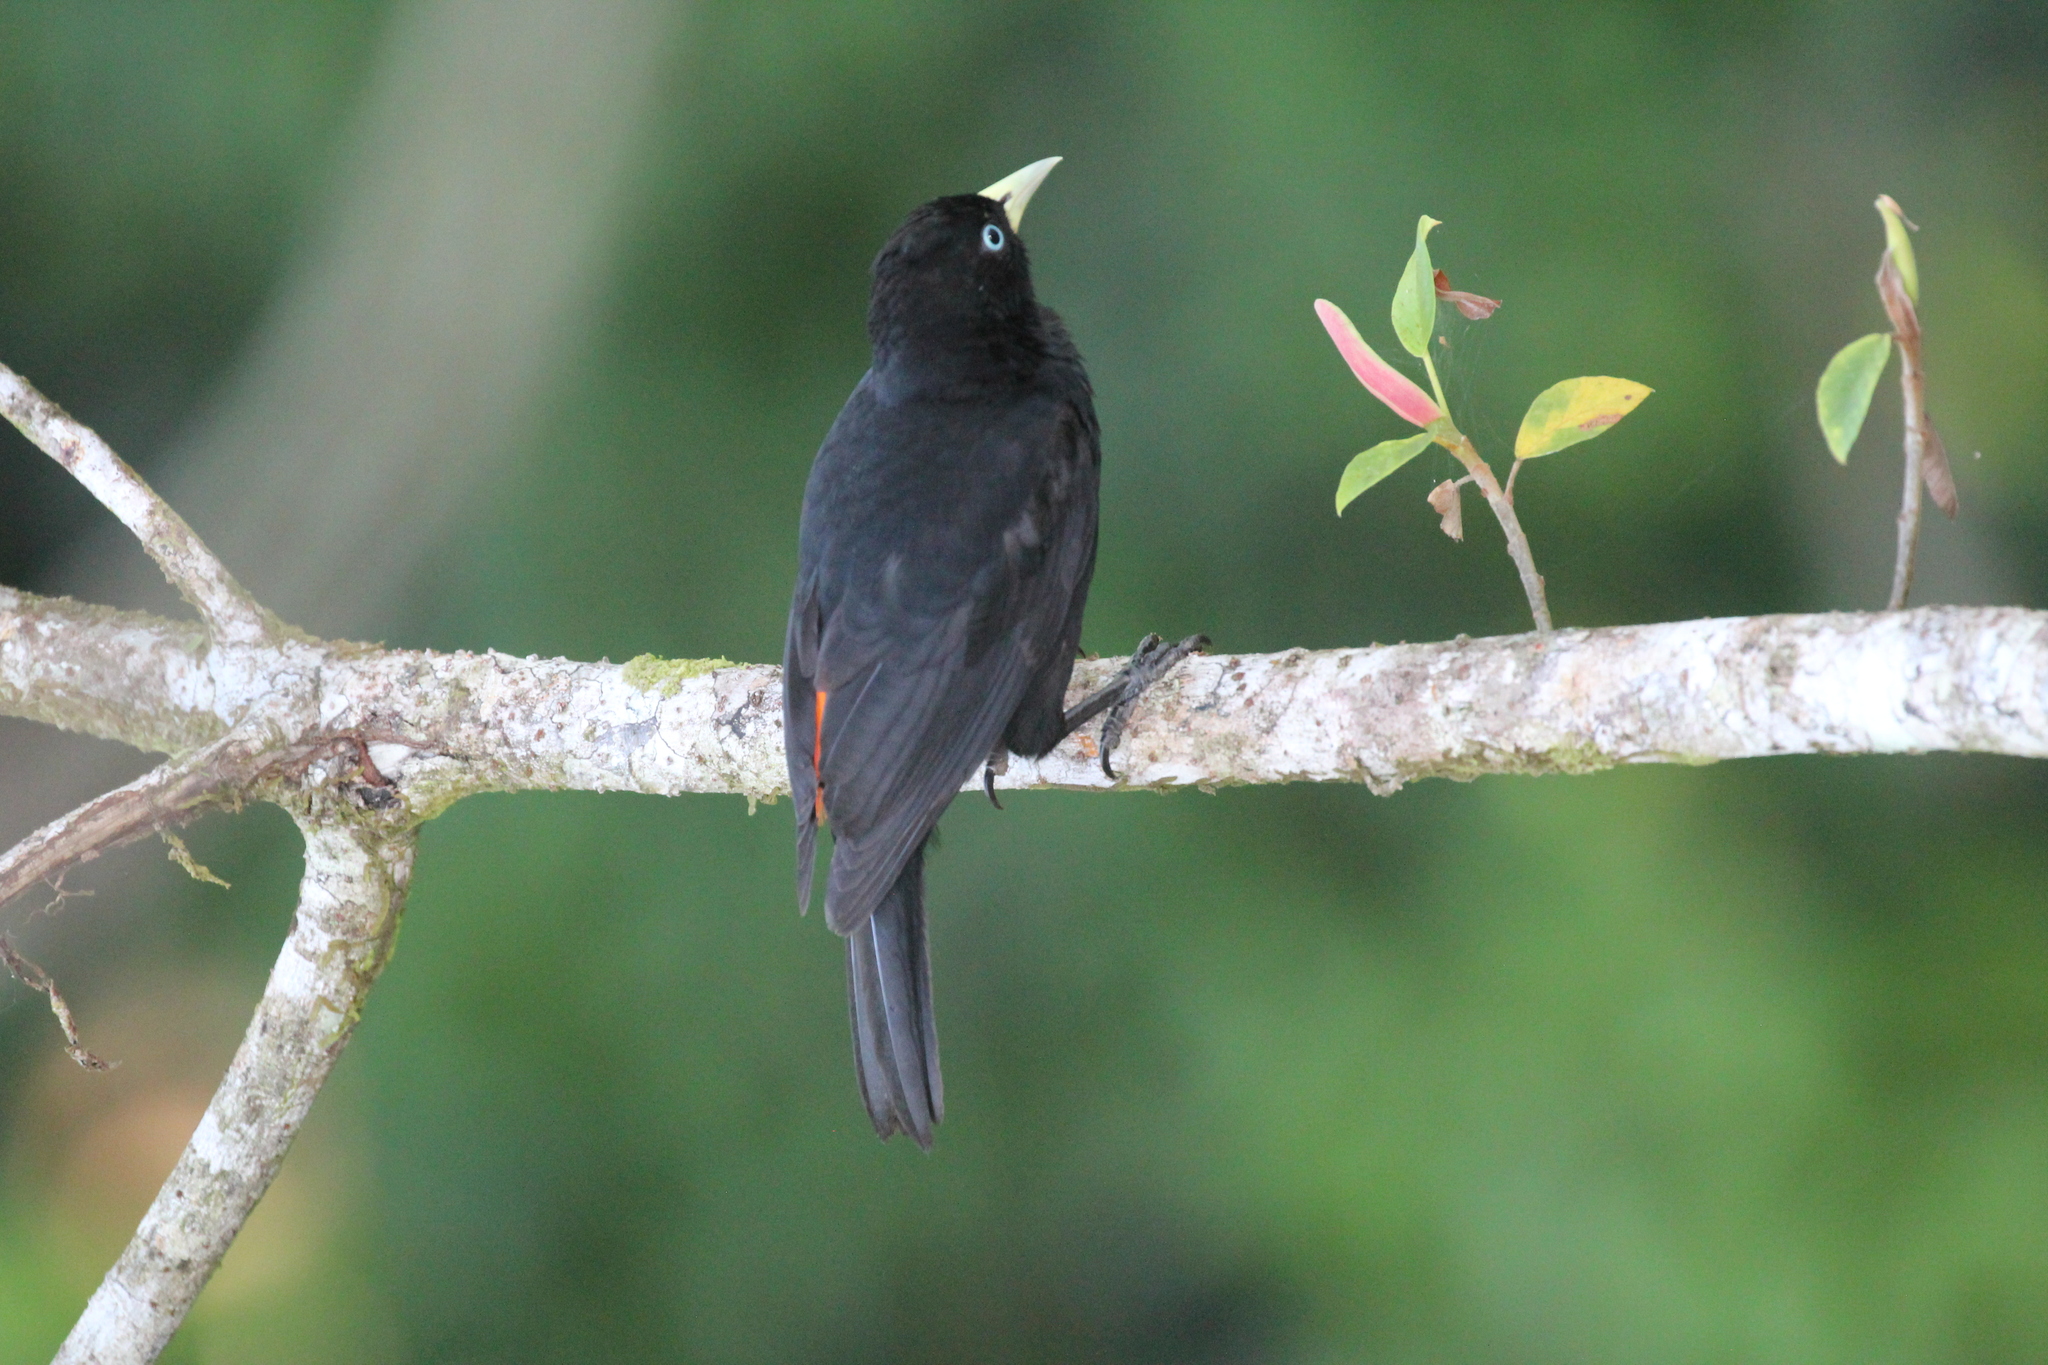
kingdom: Animalia
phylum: Chordata
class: Aves
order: Passeriformes
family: Icteridae
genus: Cacicus
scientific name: Cacicus uropygialis
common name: Scarlet-rumped cacique
